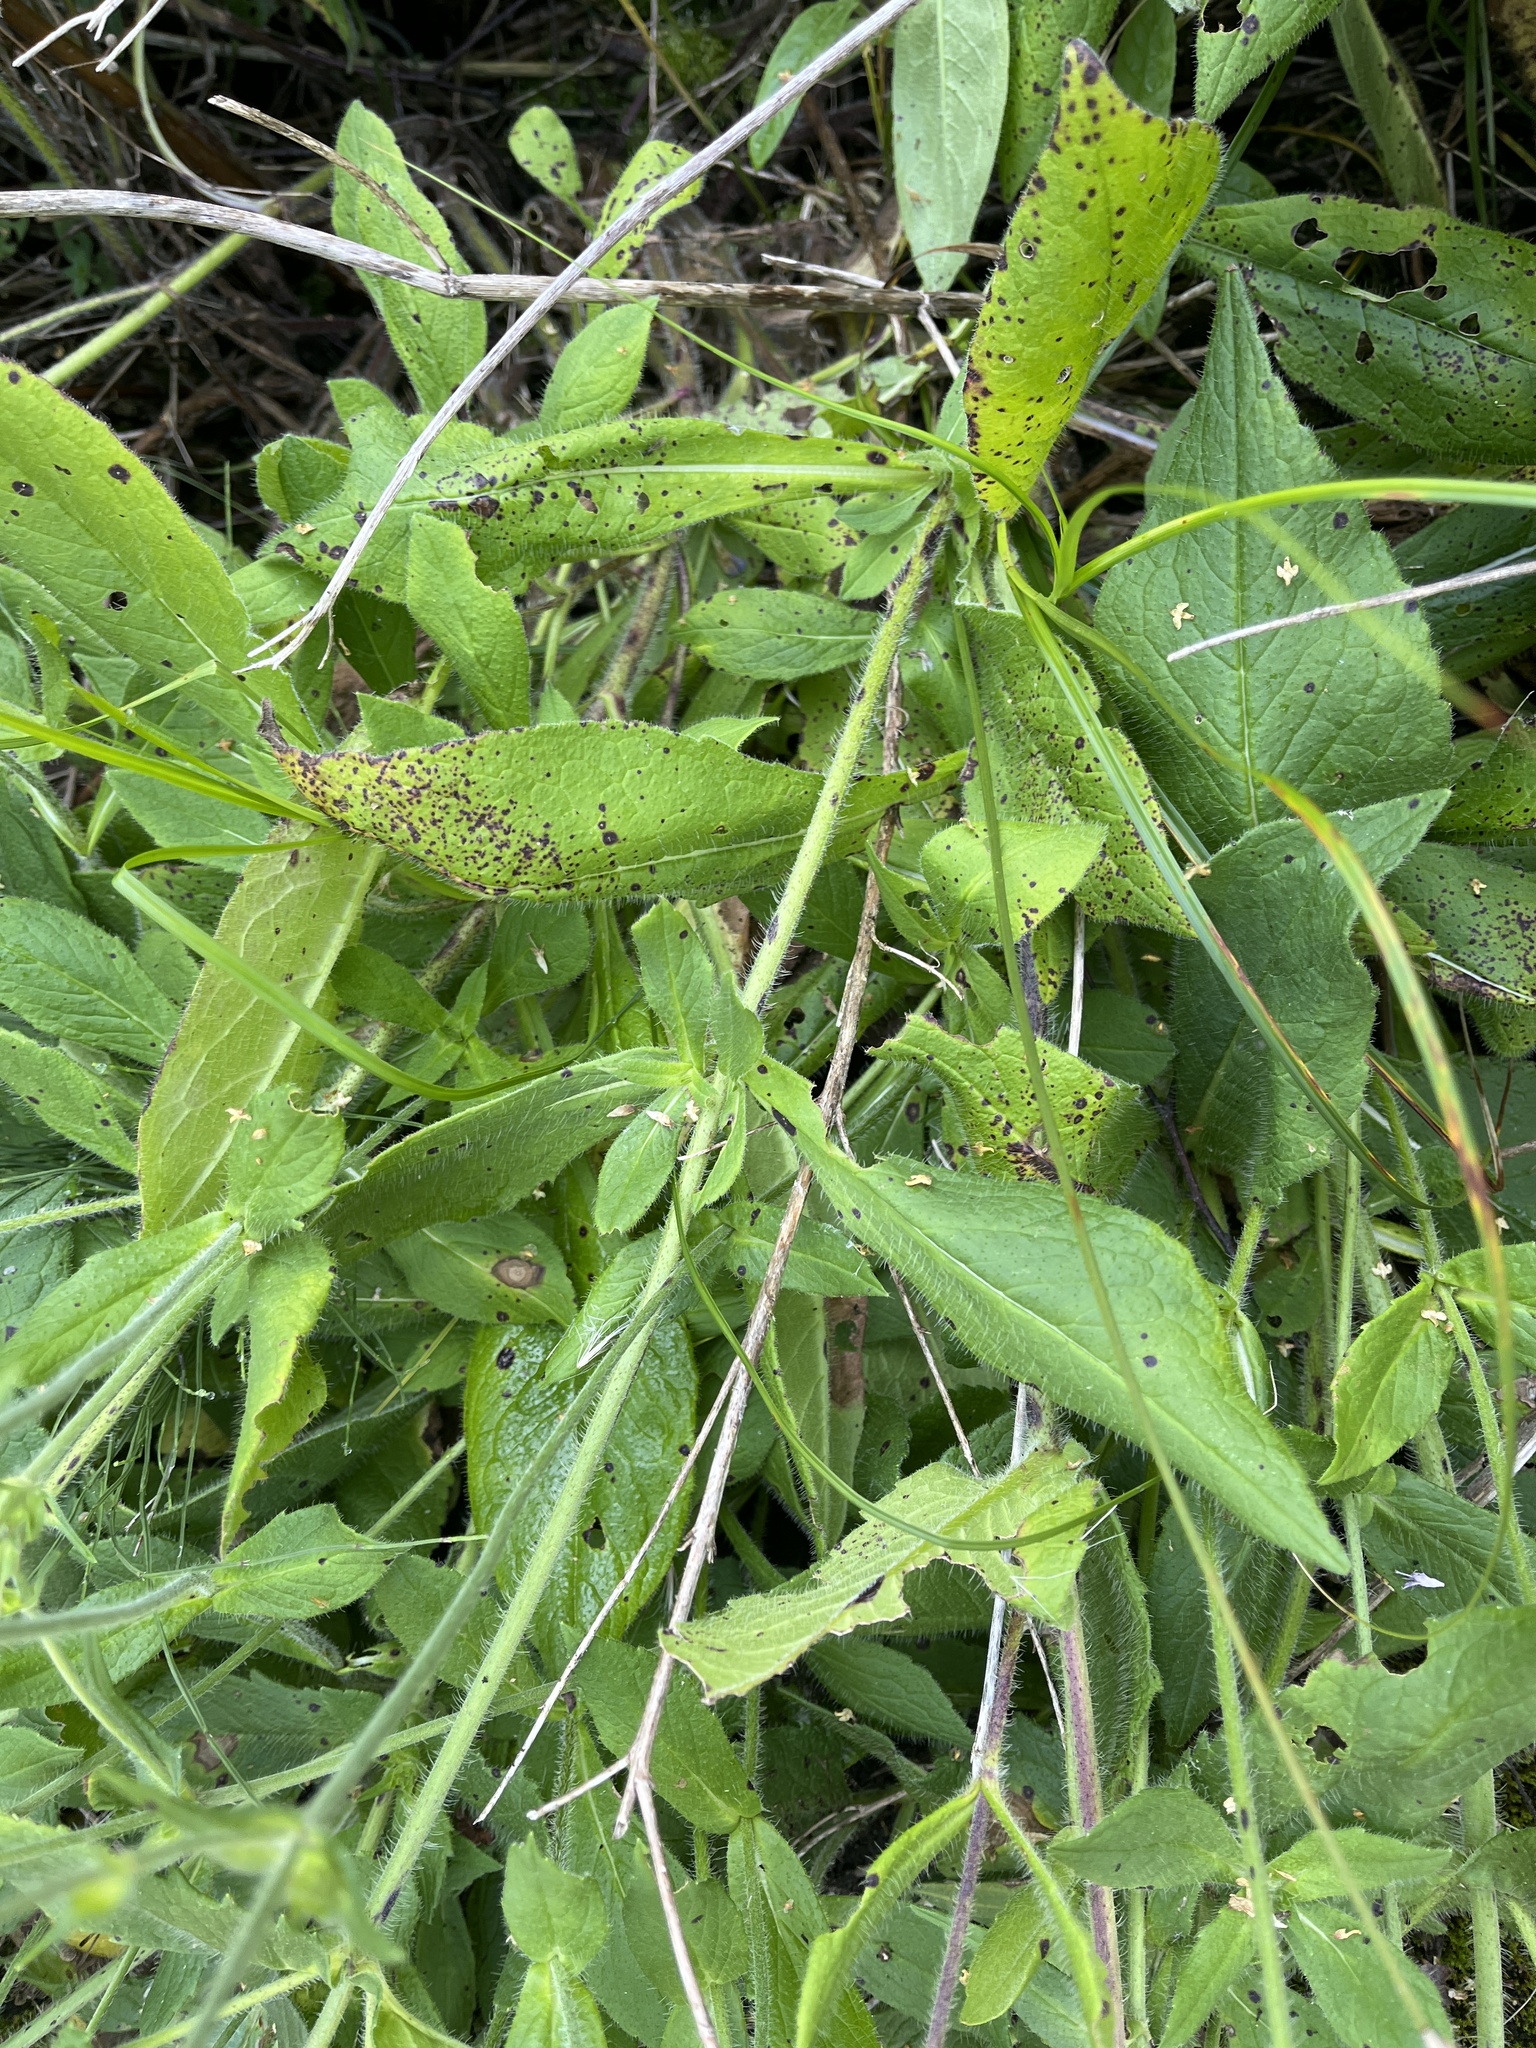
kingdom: Plantae
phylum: Tracheophyta
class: Magnoliopsida
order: Dipsacales
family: Caprifoliaceae
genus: Knautia
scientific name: Knautia arvensis
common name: Field scabiosa
